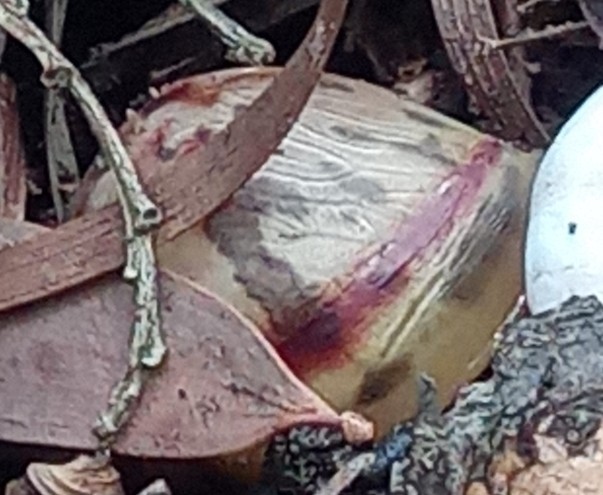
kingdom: Animalia
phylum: Mollusca
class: Gastropoda
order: Stylommatophora
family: Achatinidae
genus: Lissachatina
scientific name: Lissachatina fulica
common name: Giant african snail
